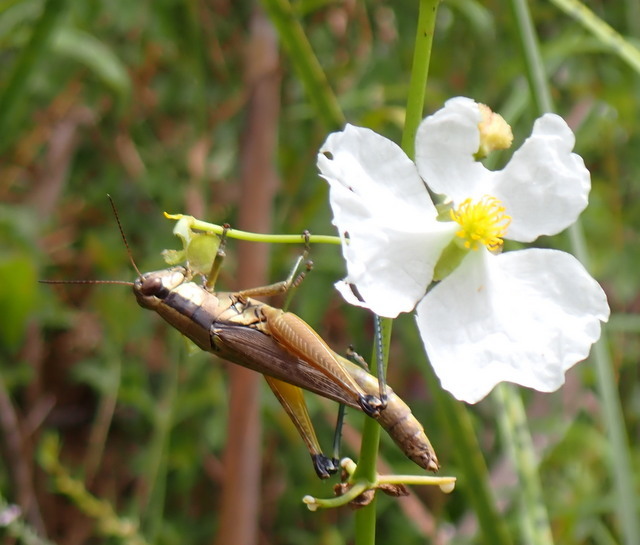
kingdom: Animalia
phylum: Arthropoda
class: Insecta
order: Orthoptera
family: Acrididae
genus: Paroxya
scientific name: Paroxya atlantica
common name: Atlantic grasshopper
